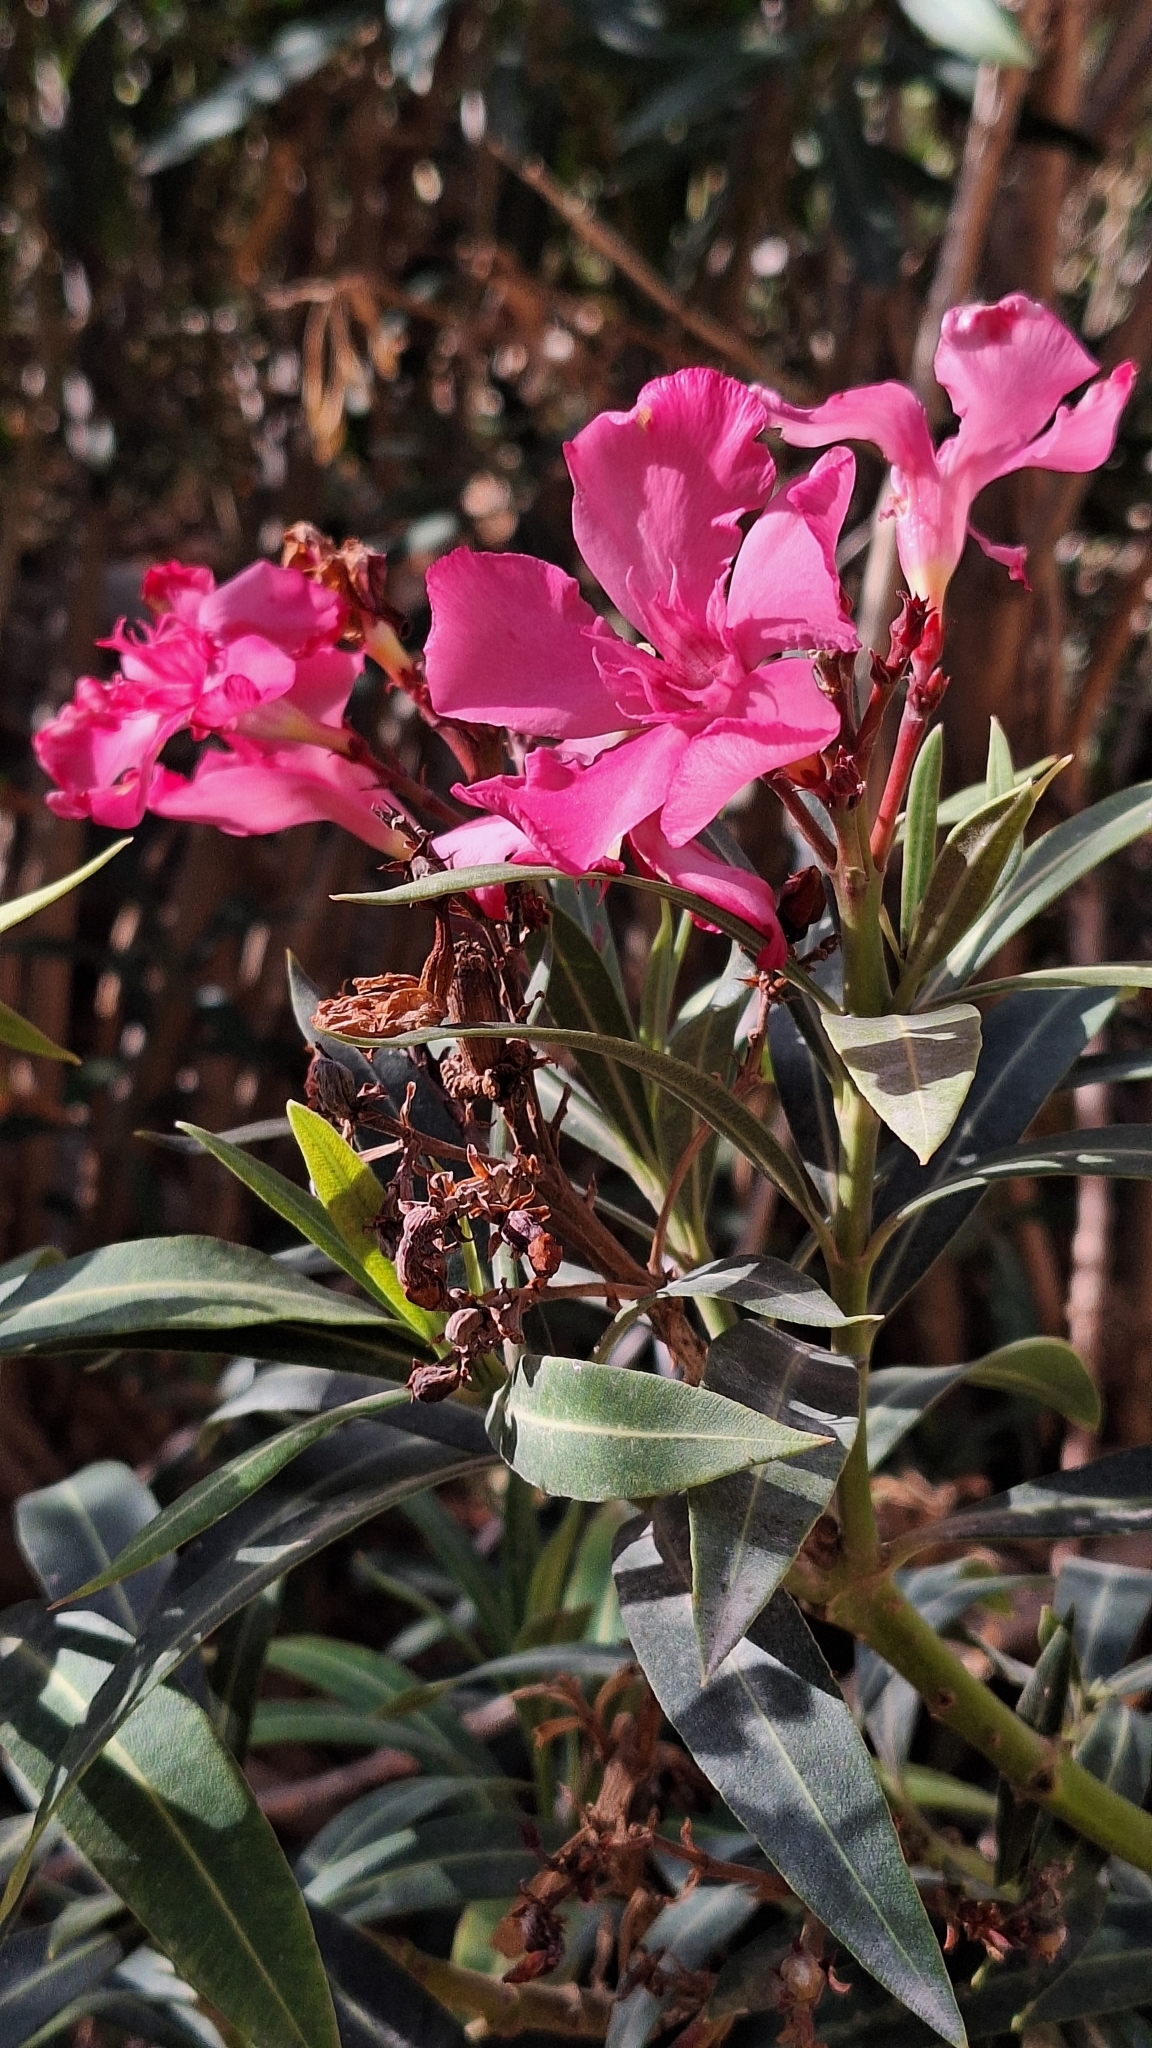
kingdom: Plantae
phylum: Tracheophyta
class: Magnoliopsida
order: Gentianales
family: Apocynaceae
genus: Nerium
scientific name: Nerium oleander
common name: Oleander
